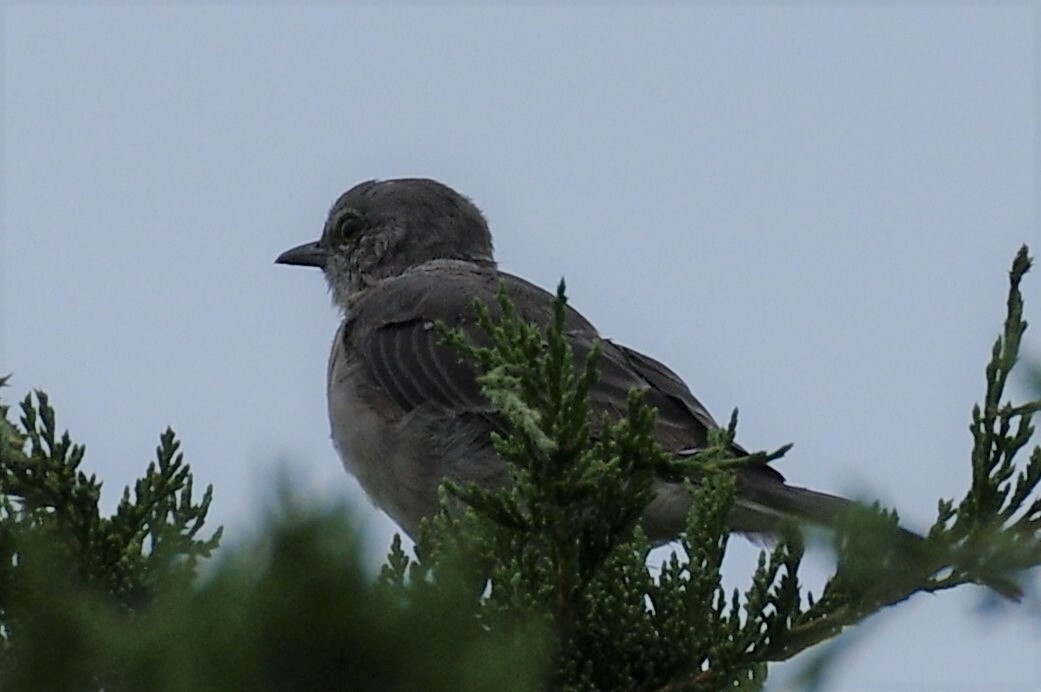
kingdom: Animalia
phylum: Chordata
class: Aves
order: Passeriformes
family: Mimidae
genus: Mimus
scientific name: Mimus polyglottos
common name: Northern mockingbird
